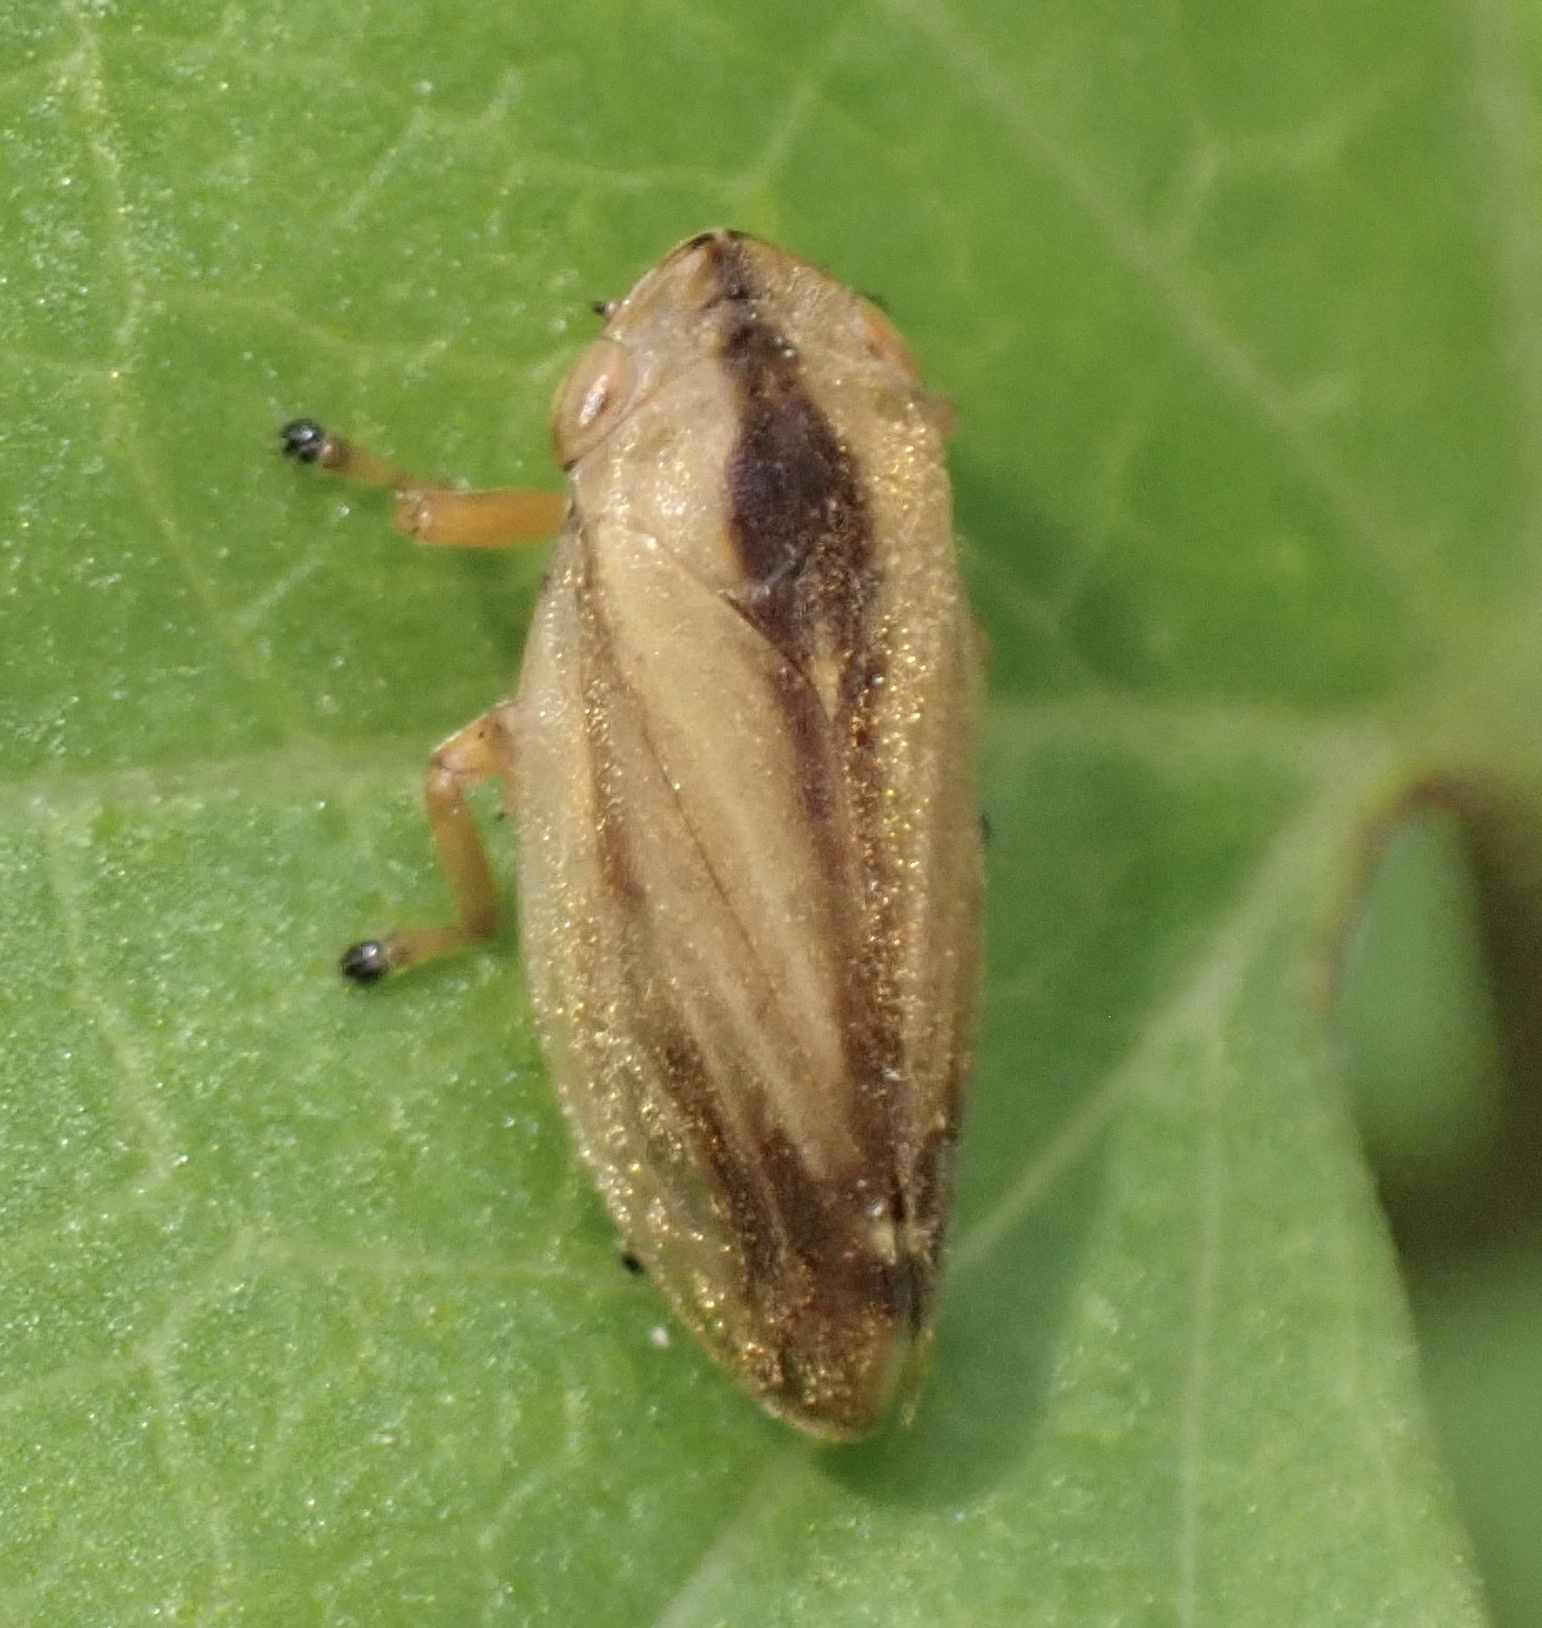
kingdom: Animalia
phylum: Arthropoda
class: Insecta
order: Hemiptera
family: Aphrophoridae
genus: Philaenus
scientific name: Philaenus spumarius
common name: Meadow spittlebug
